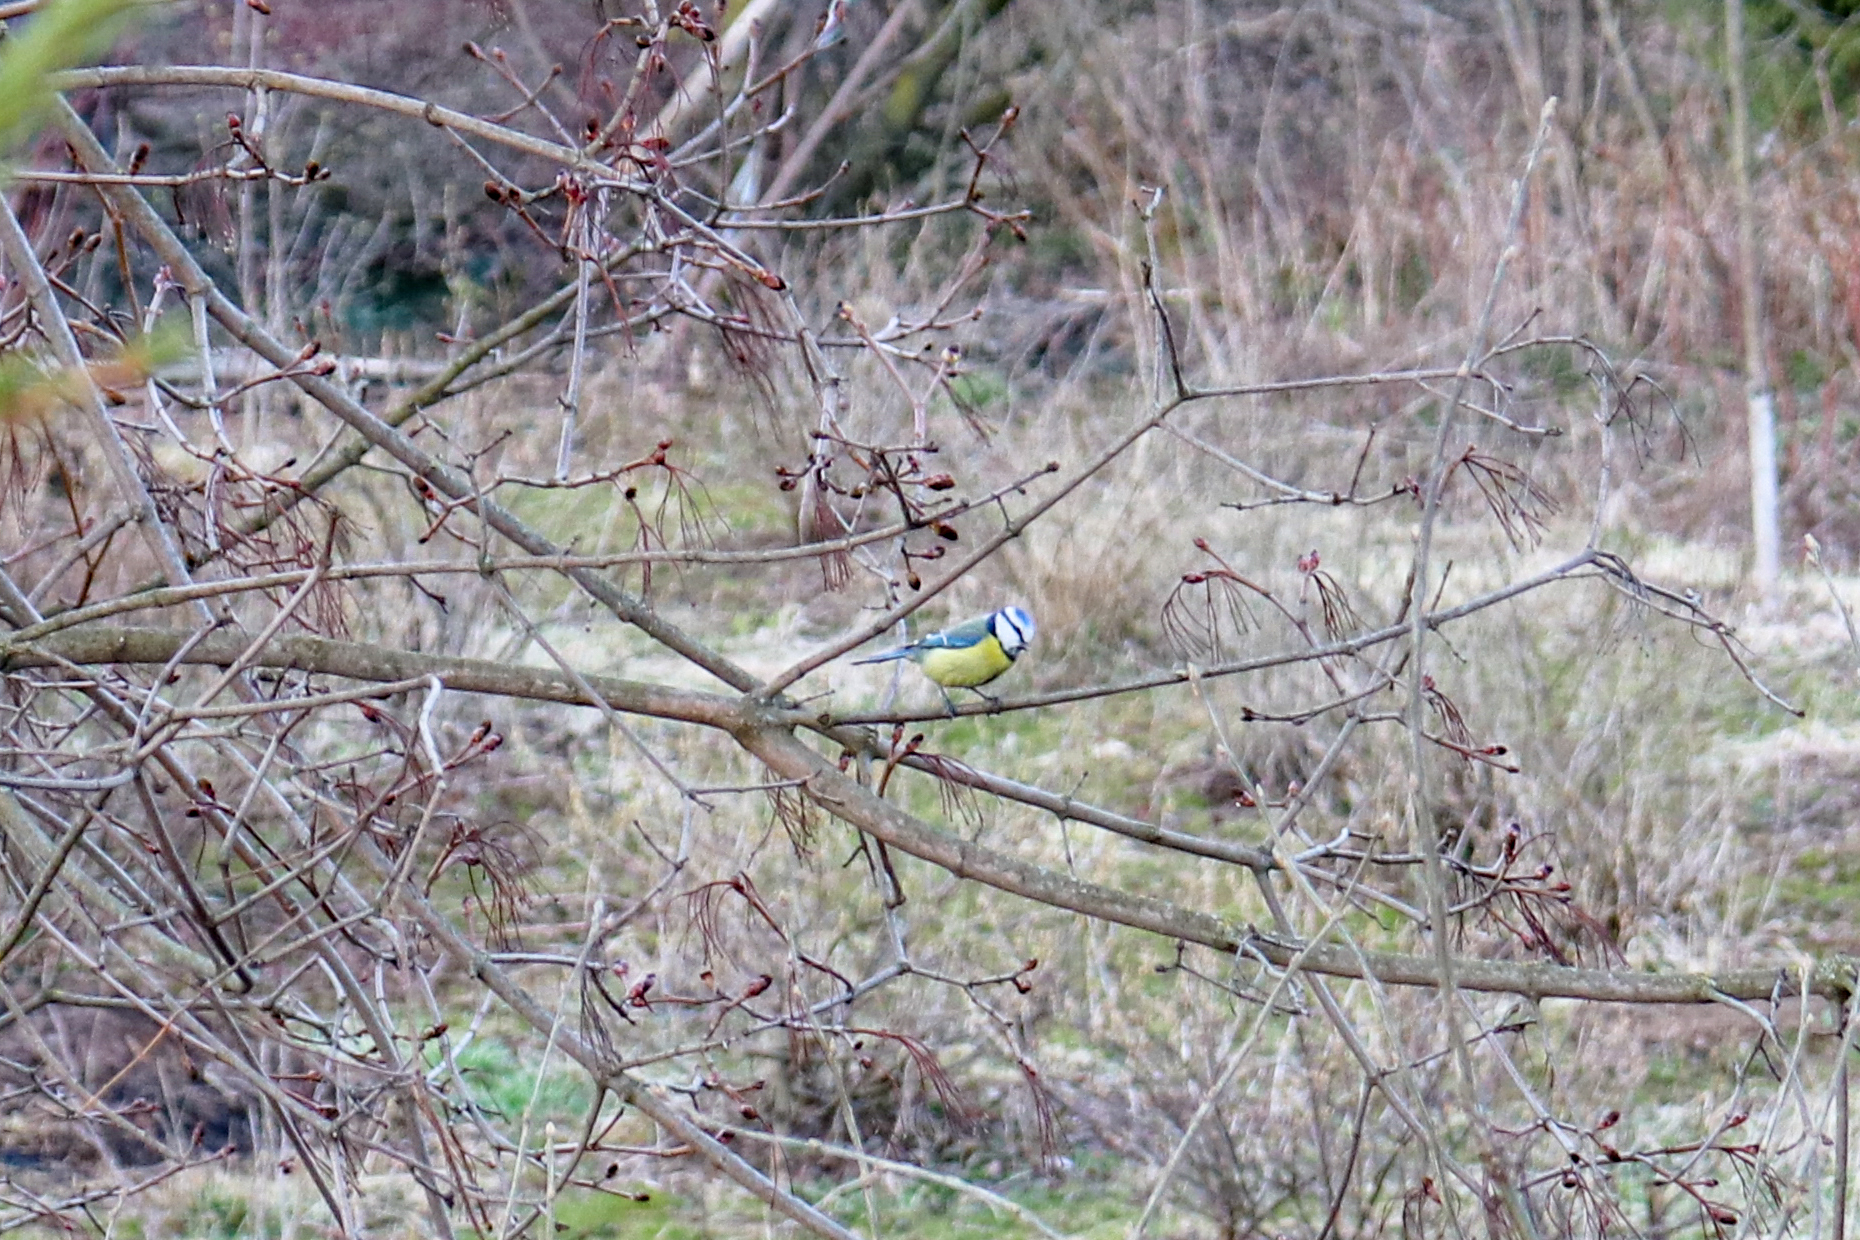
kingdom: Animalia
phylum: Chordata
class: Aves
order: Passeriformes
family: Paridae
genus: Cyanistes
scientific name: Cyanistes caeruleus
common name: Eurasian blue tit
